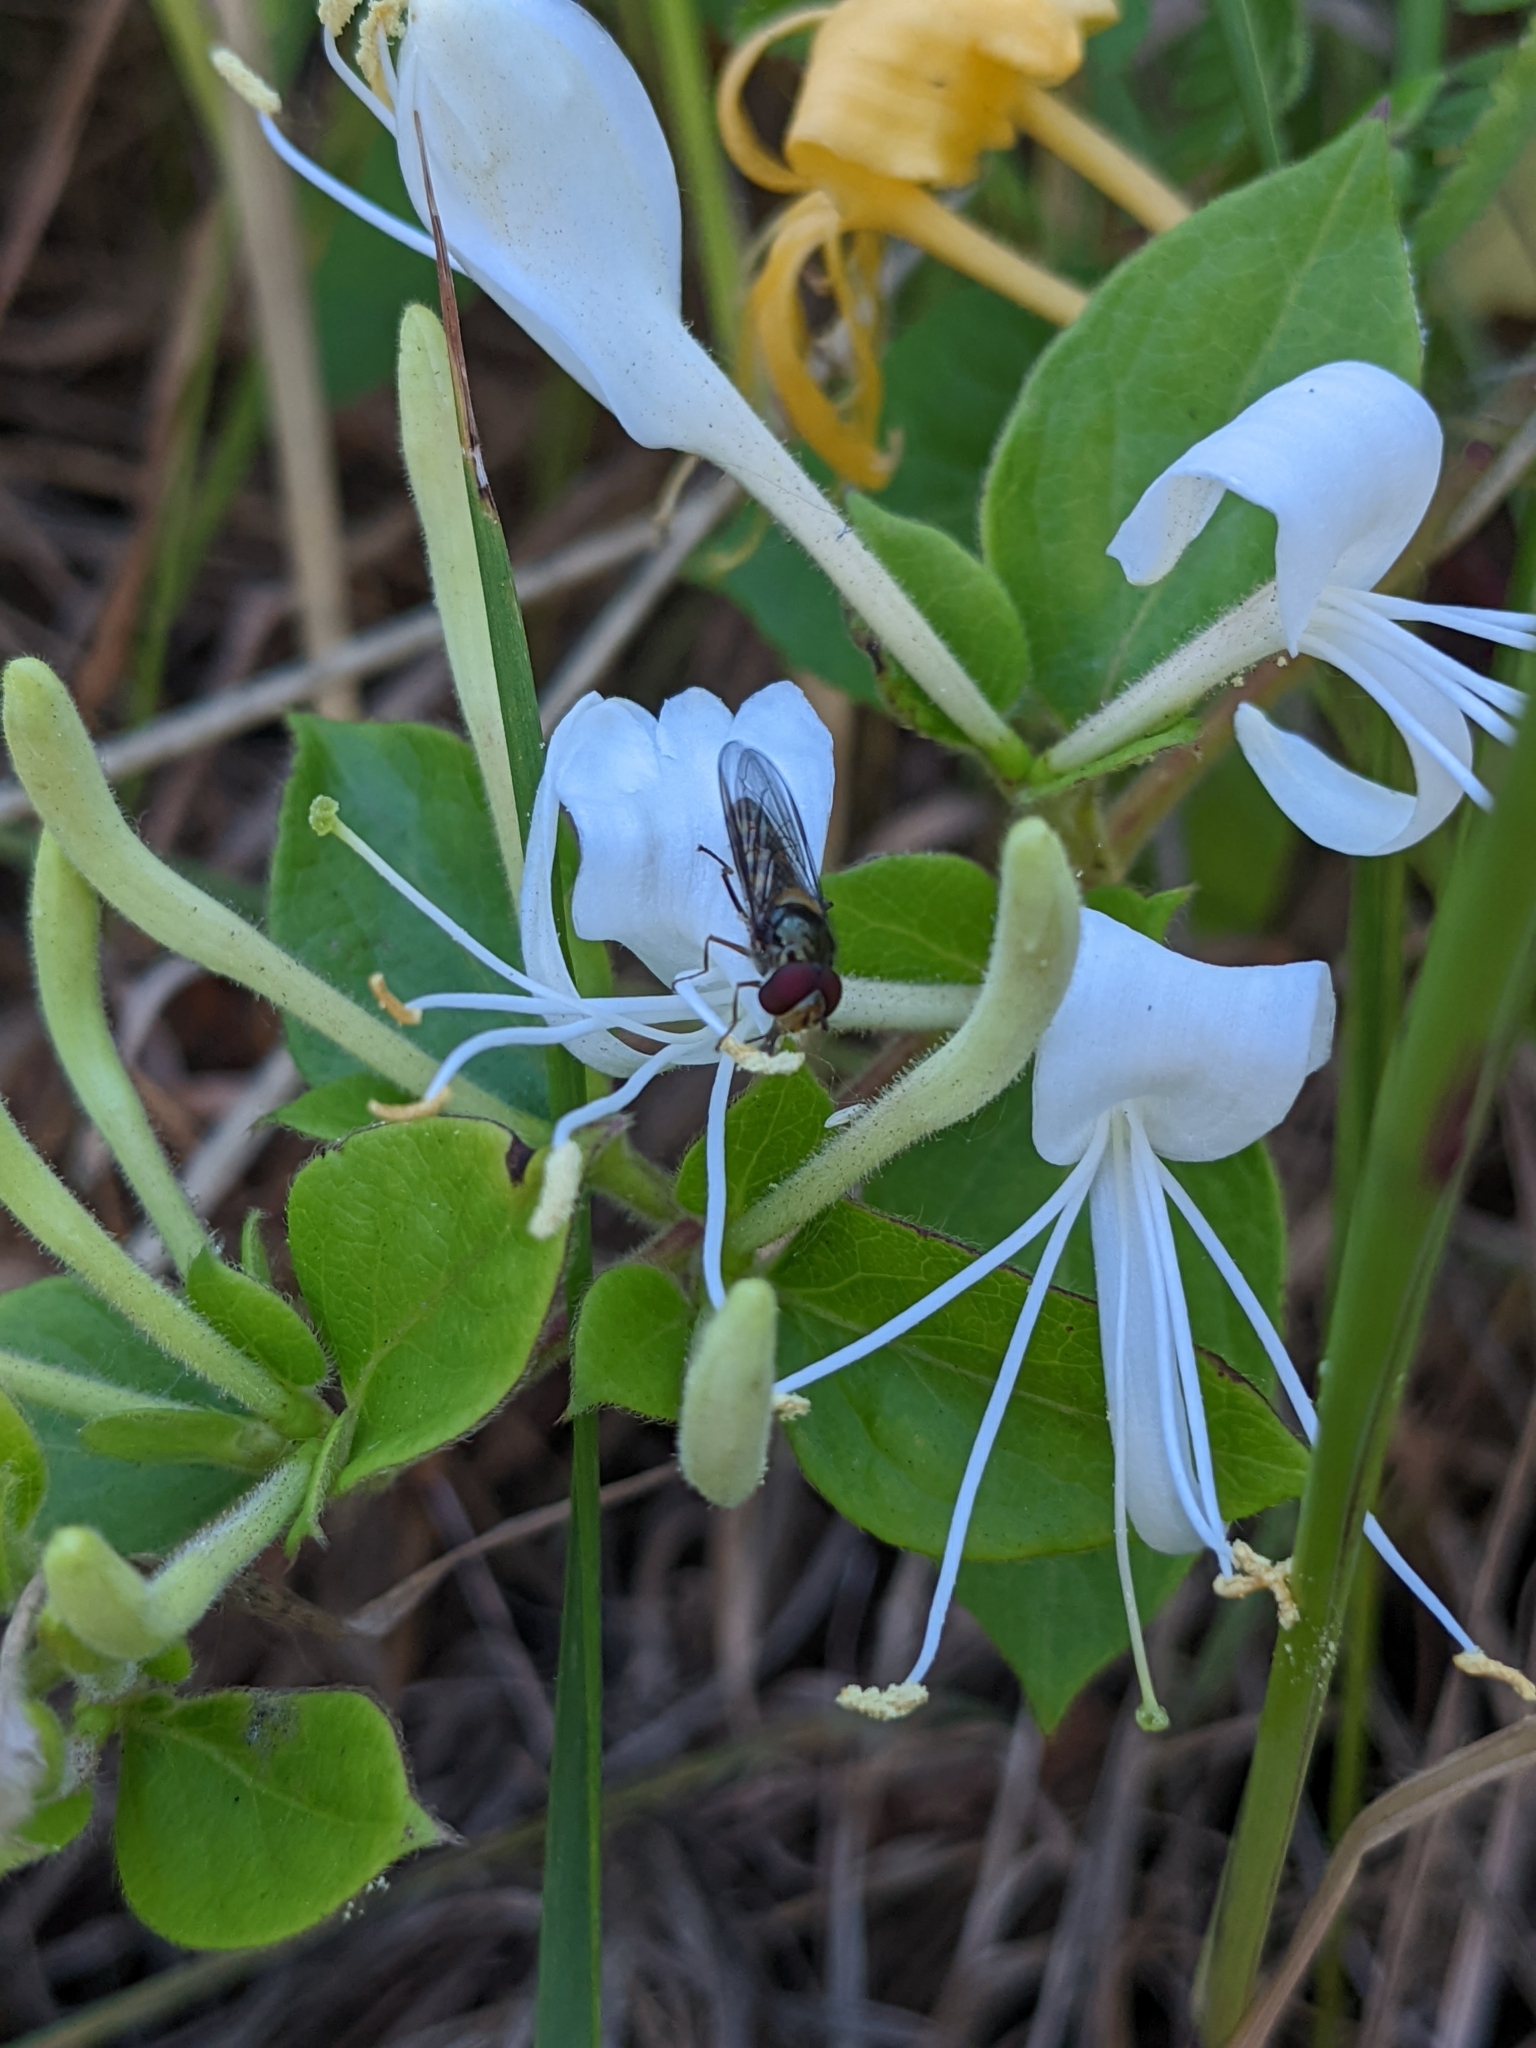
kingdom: Plantae
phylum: Tracheophyta
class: Magnoliopsida
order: Dipsacales
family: Caprifoliaceae
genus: Lonicera
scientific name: Lonicera japonica
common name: Japanese honeysuckle
